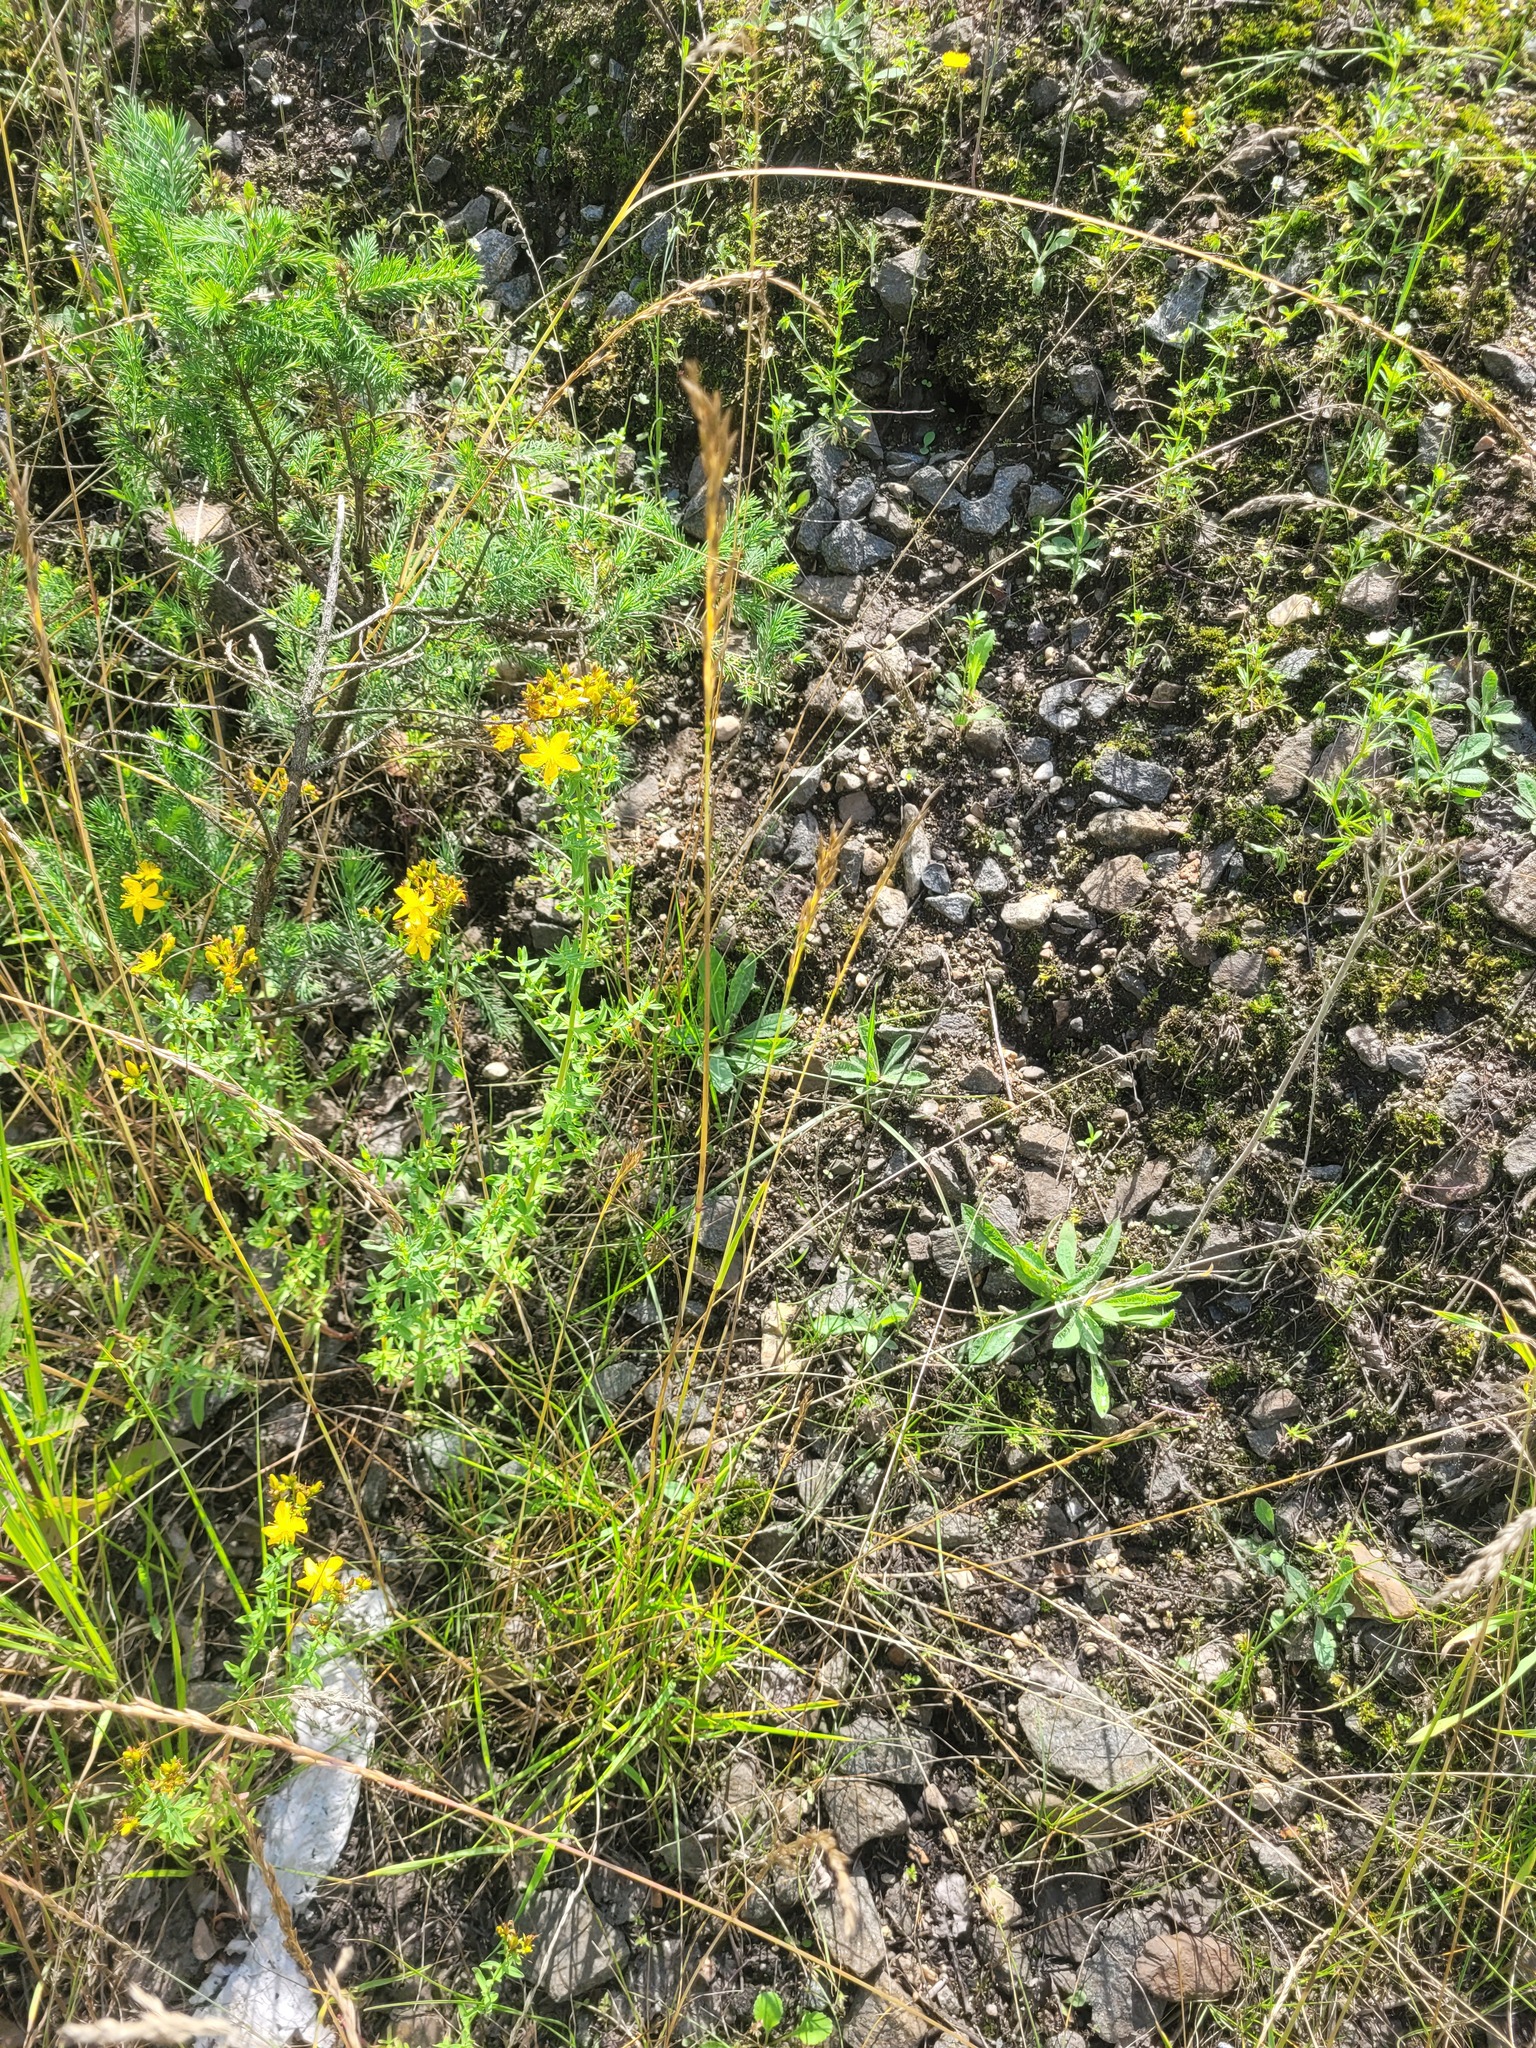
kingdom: Plantae
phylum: Tracheophyta
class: Liliopsida
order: Poales
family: Poaceae
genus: Lolium
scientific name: Lolium pratense
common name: Dover grass
